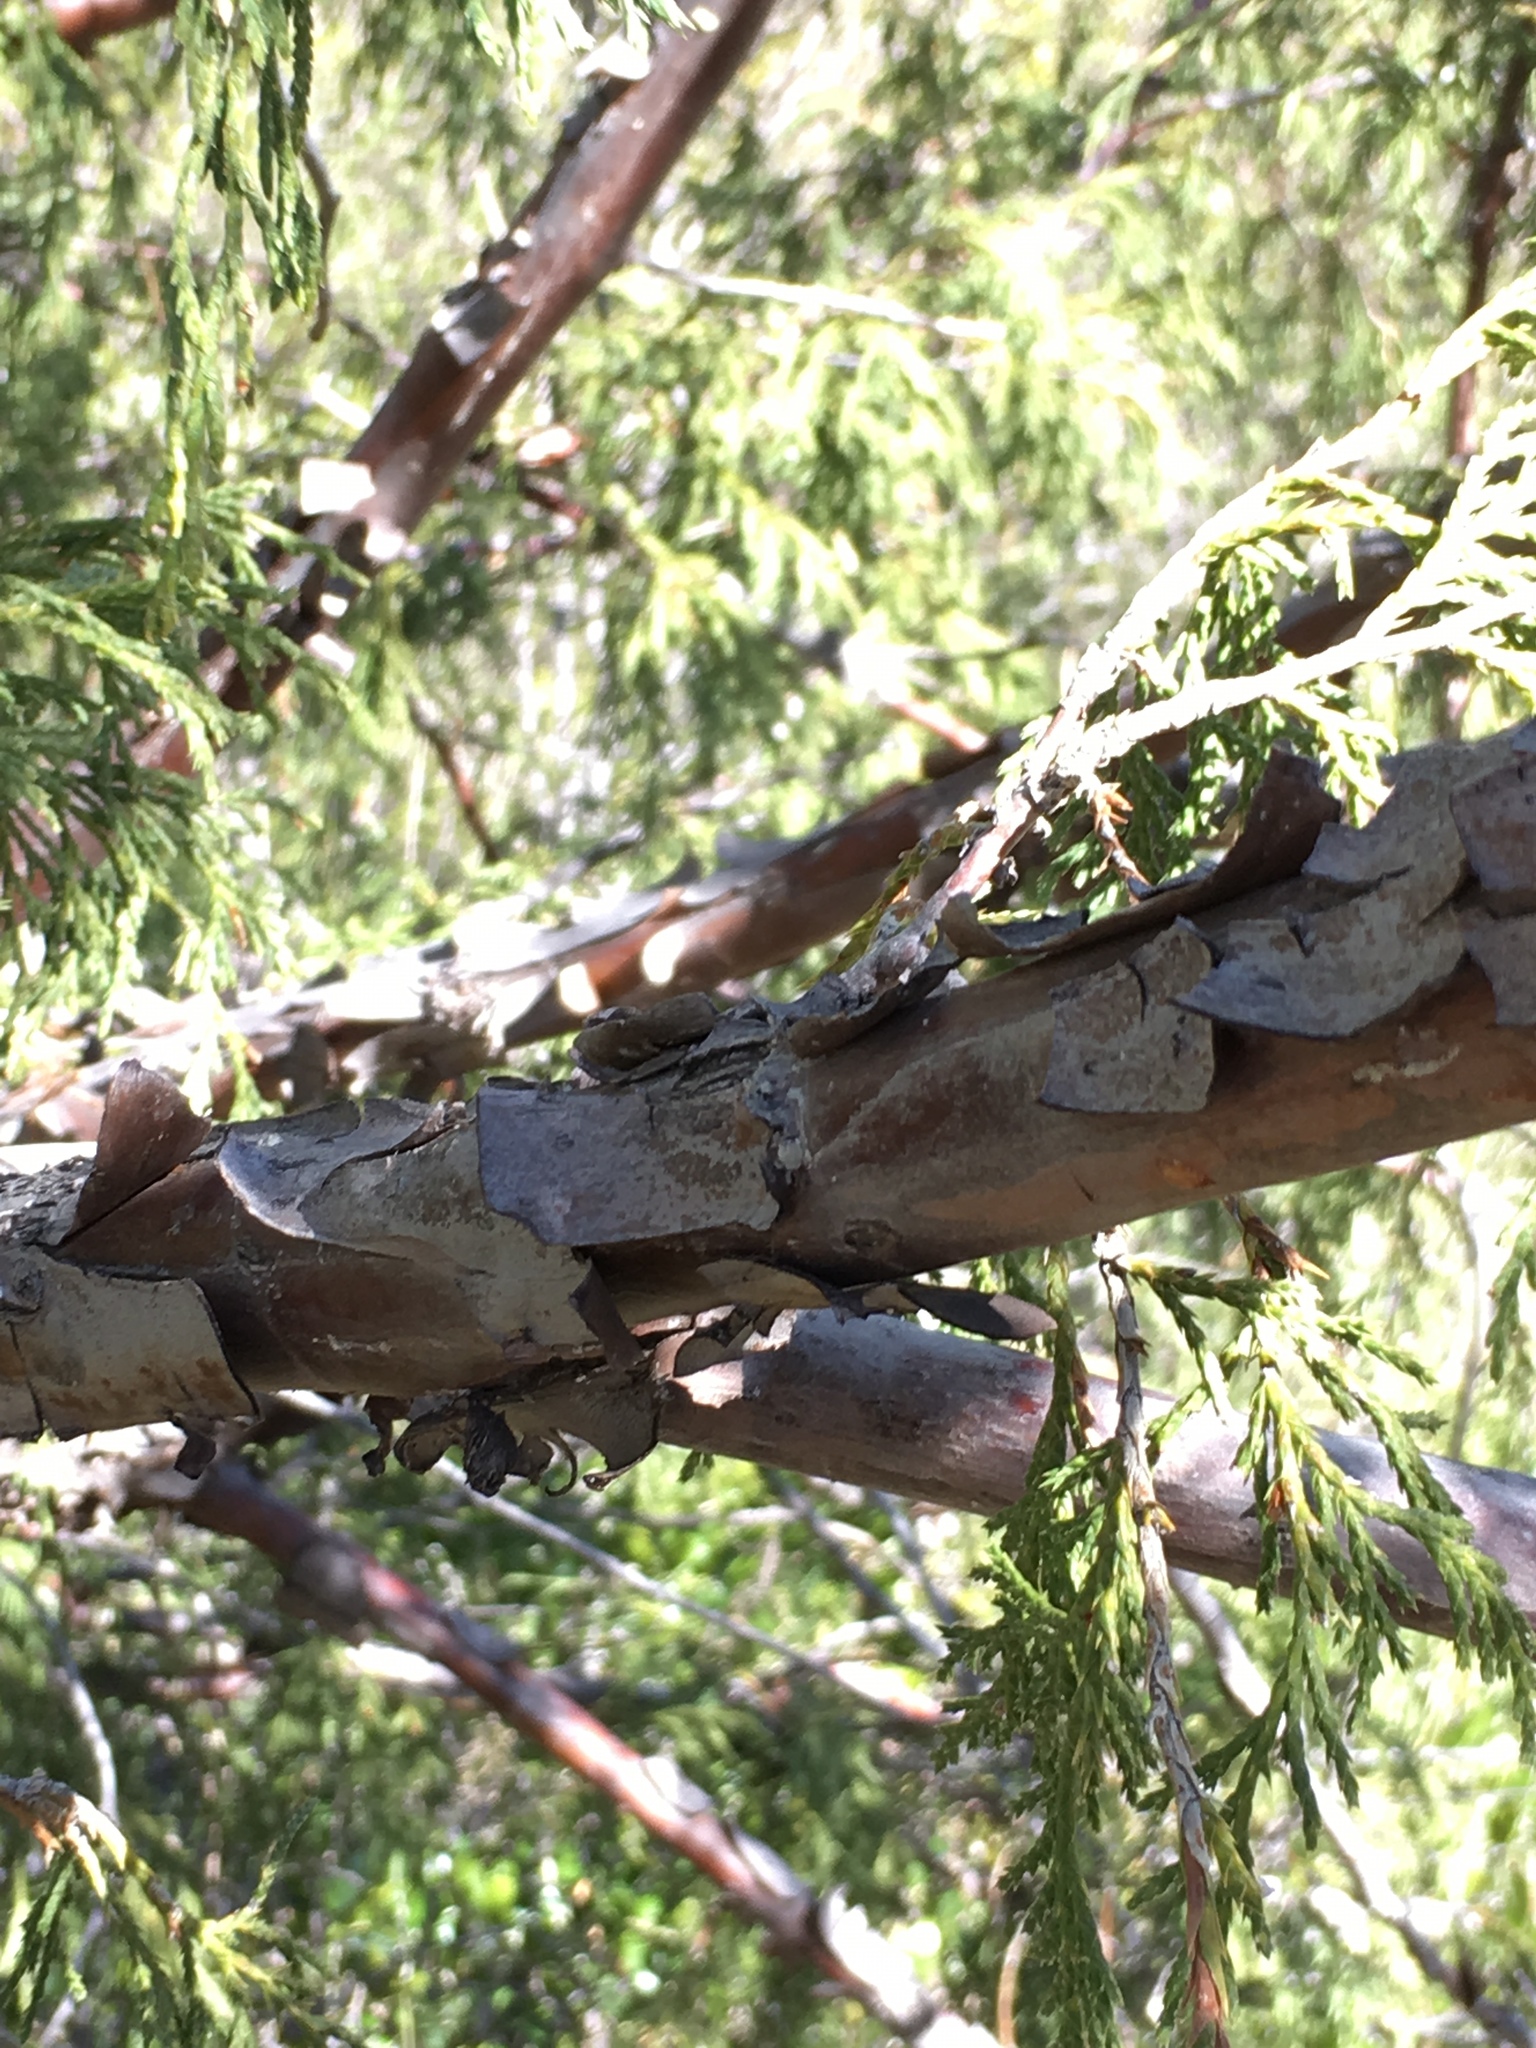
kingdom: Plantae
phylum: Tracheophyta
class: Pinopsida
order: Pinales
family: Cupressaceae
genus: Juniperus
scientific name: Juniperus flaccida
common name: Drooping juniper
